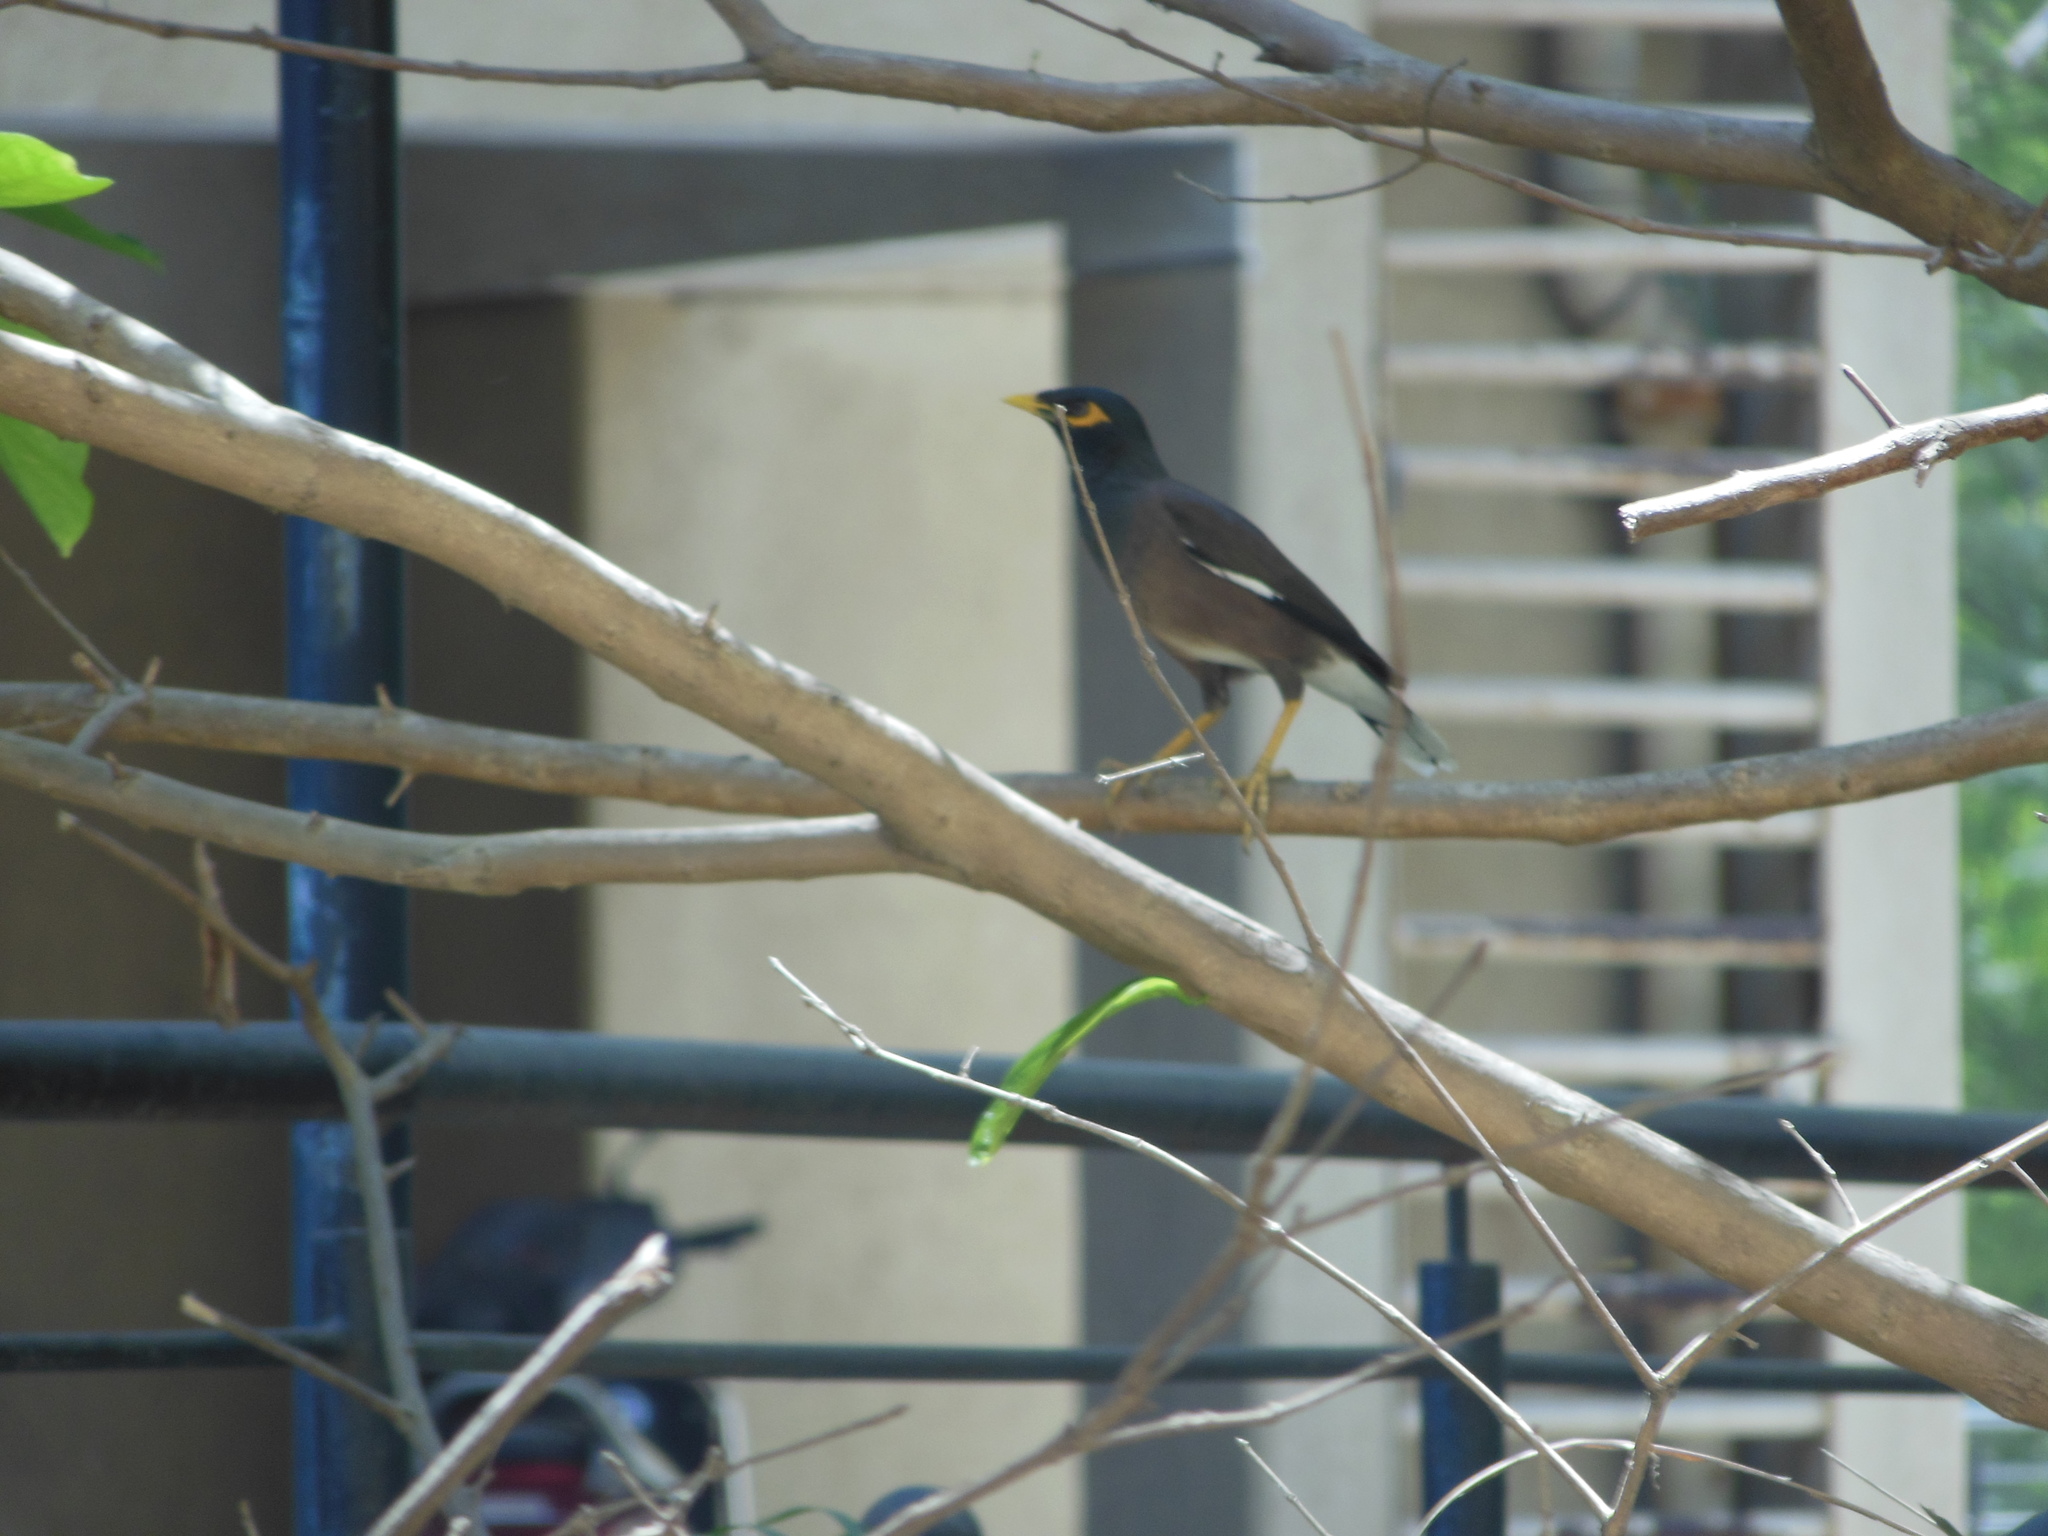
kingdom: Animalia
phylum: Chordata
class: Aves
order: Passeriformes
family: Sturnidae
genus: Acridotheres
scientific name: Acridotheres tristis
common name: Common myna
